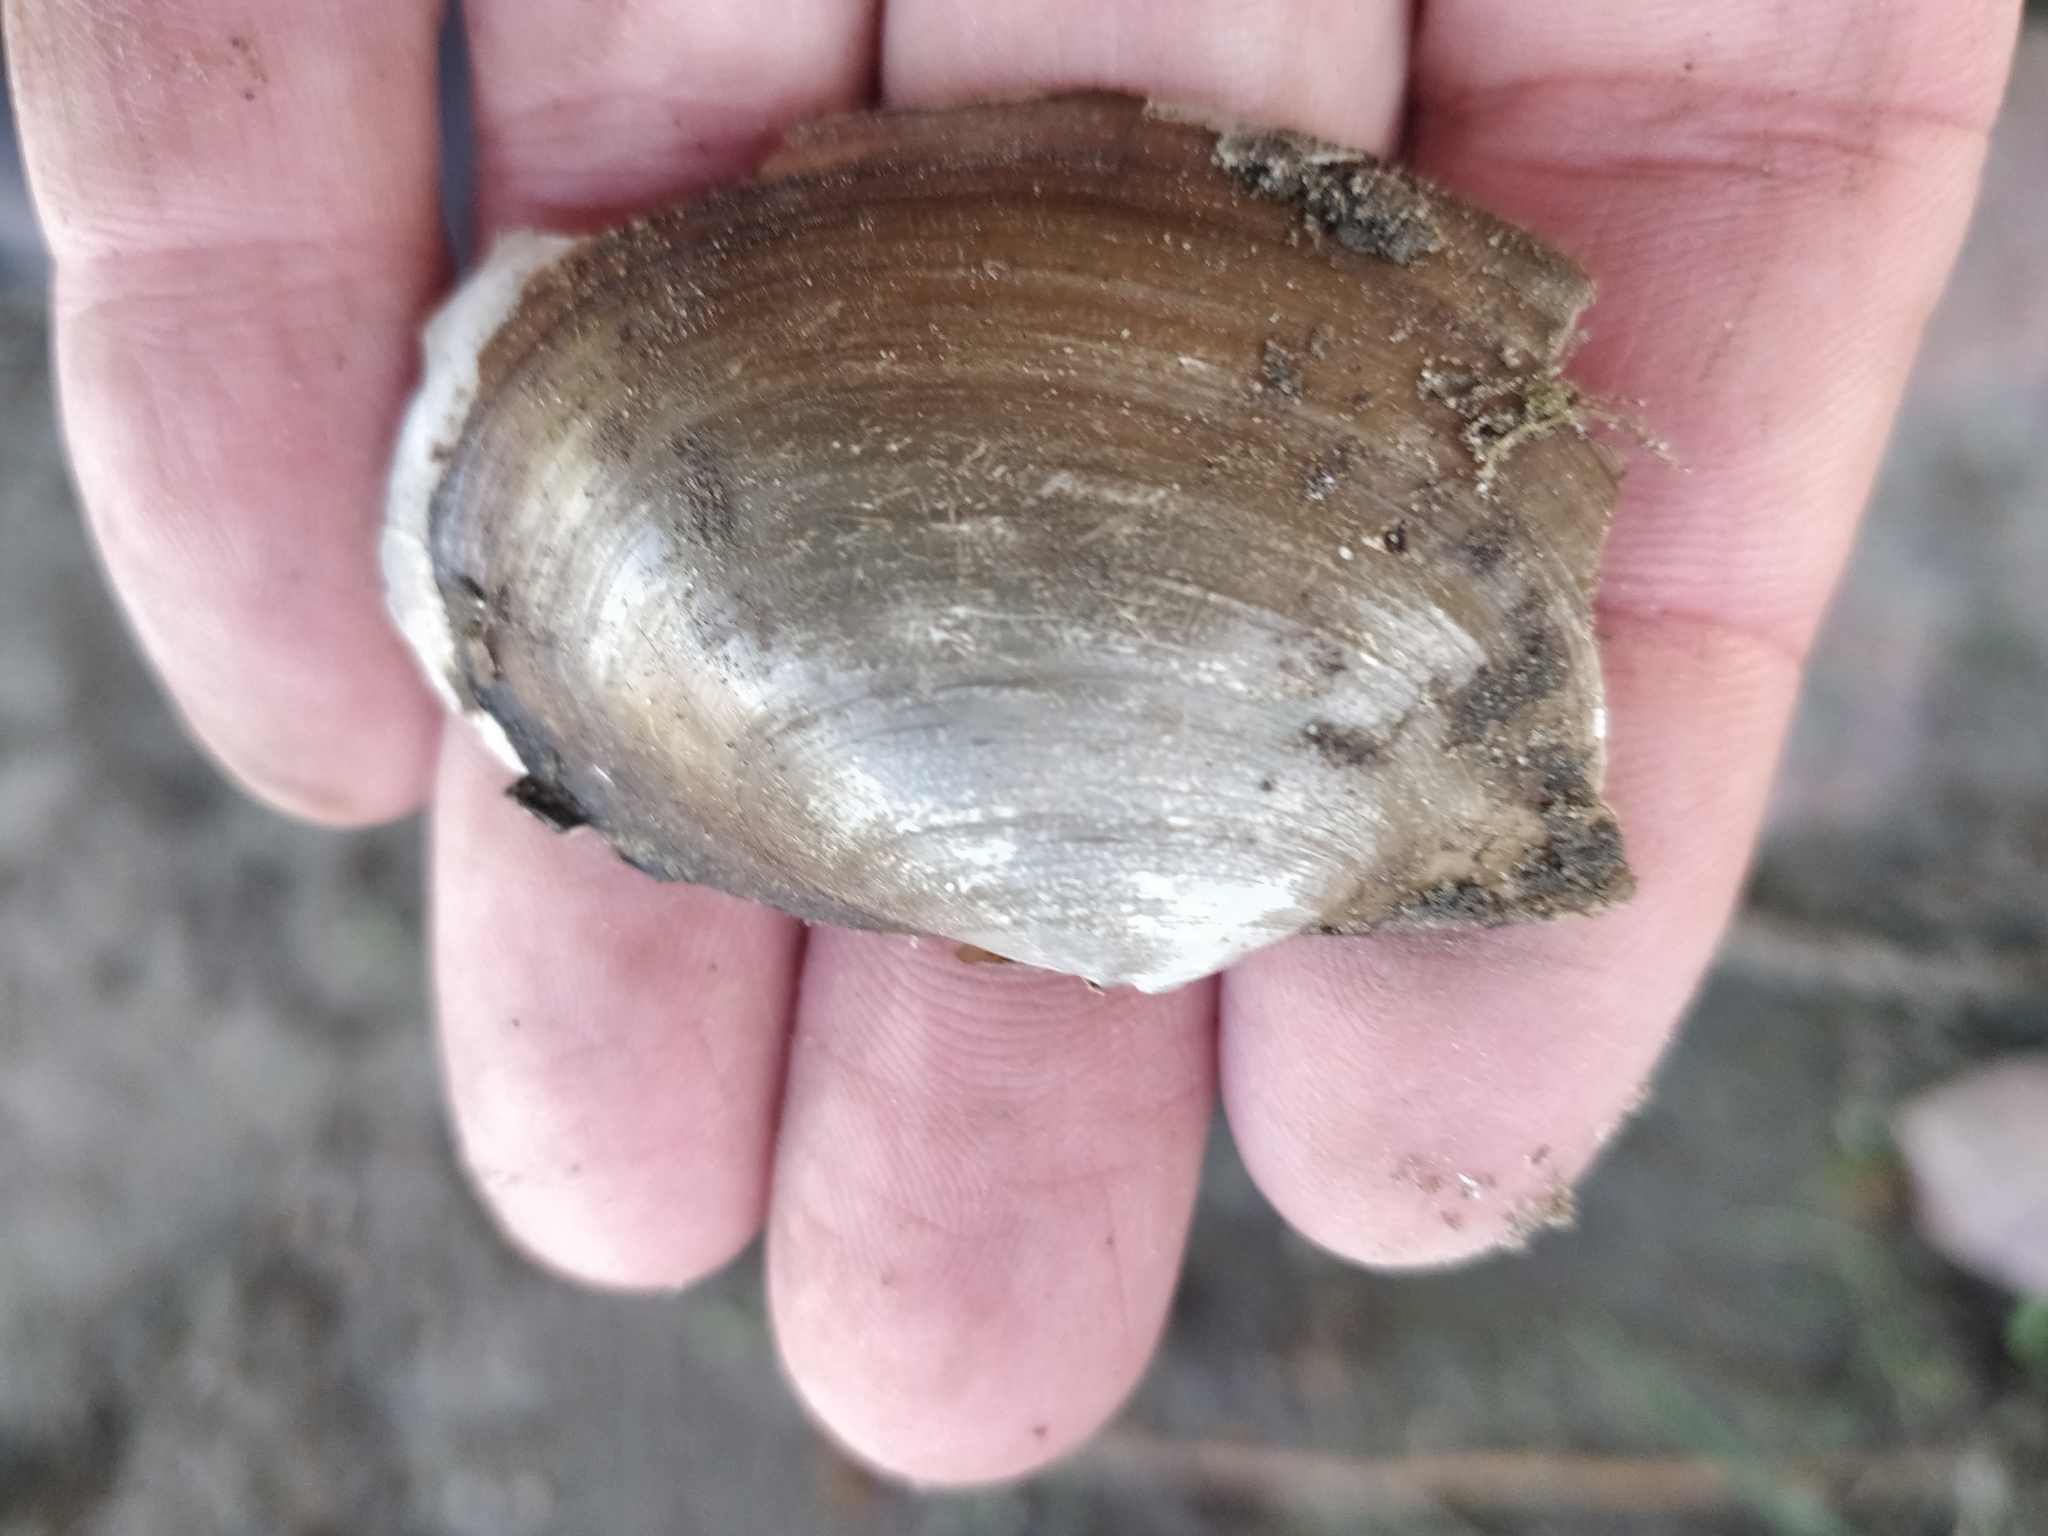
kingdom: Animalia
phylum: Mollusca
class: Bivalvia
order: Unionida
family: Unionidae
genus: Pyganodon
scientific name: Pyganodon grandis
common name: Giant floater
